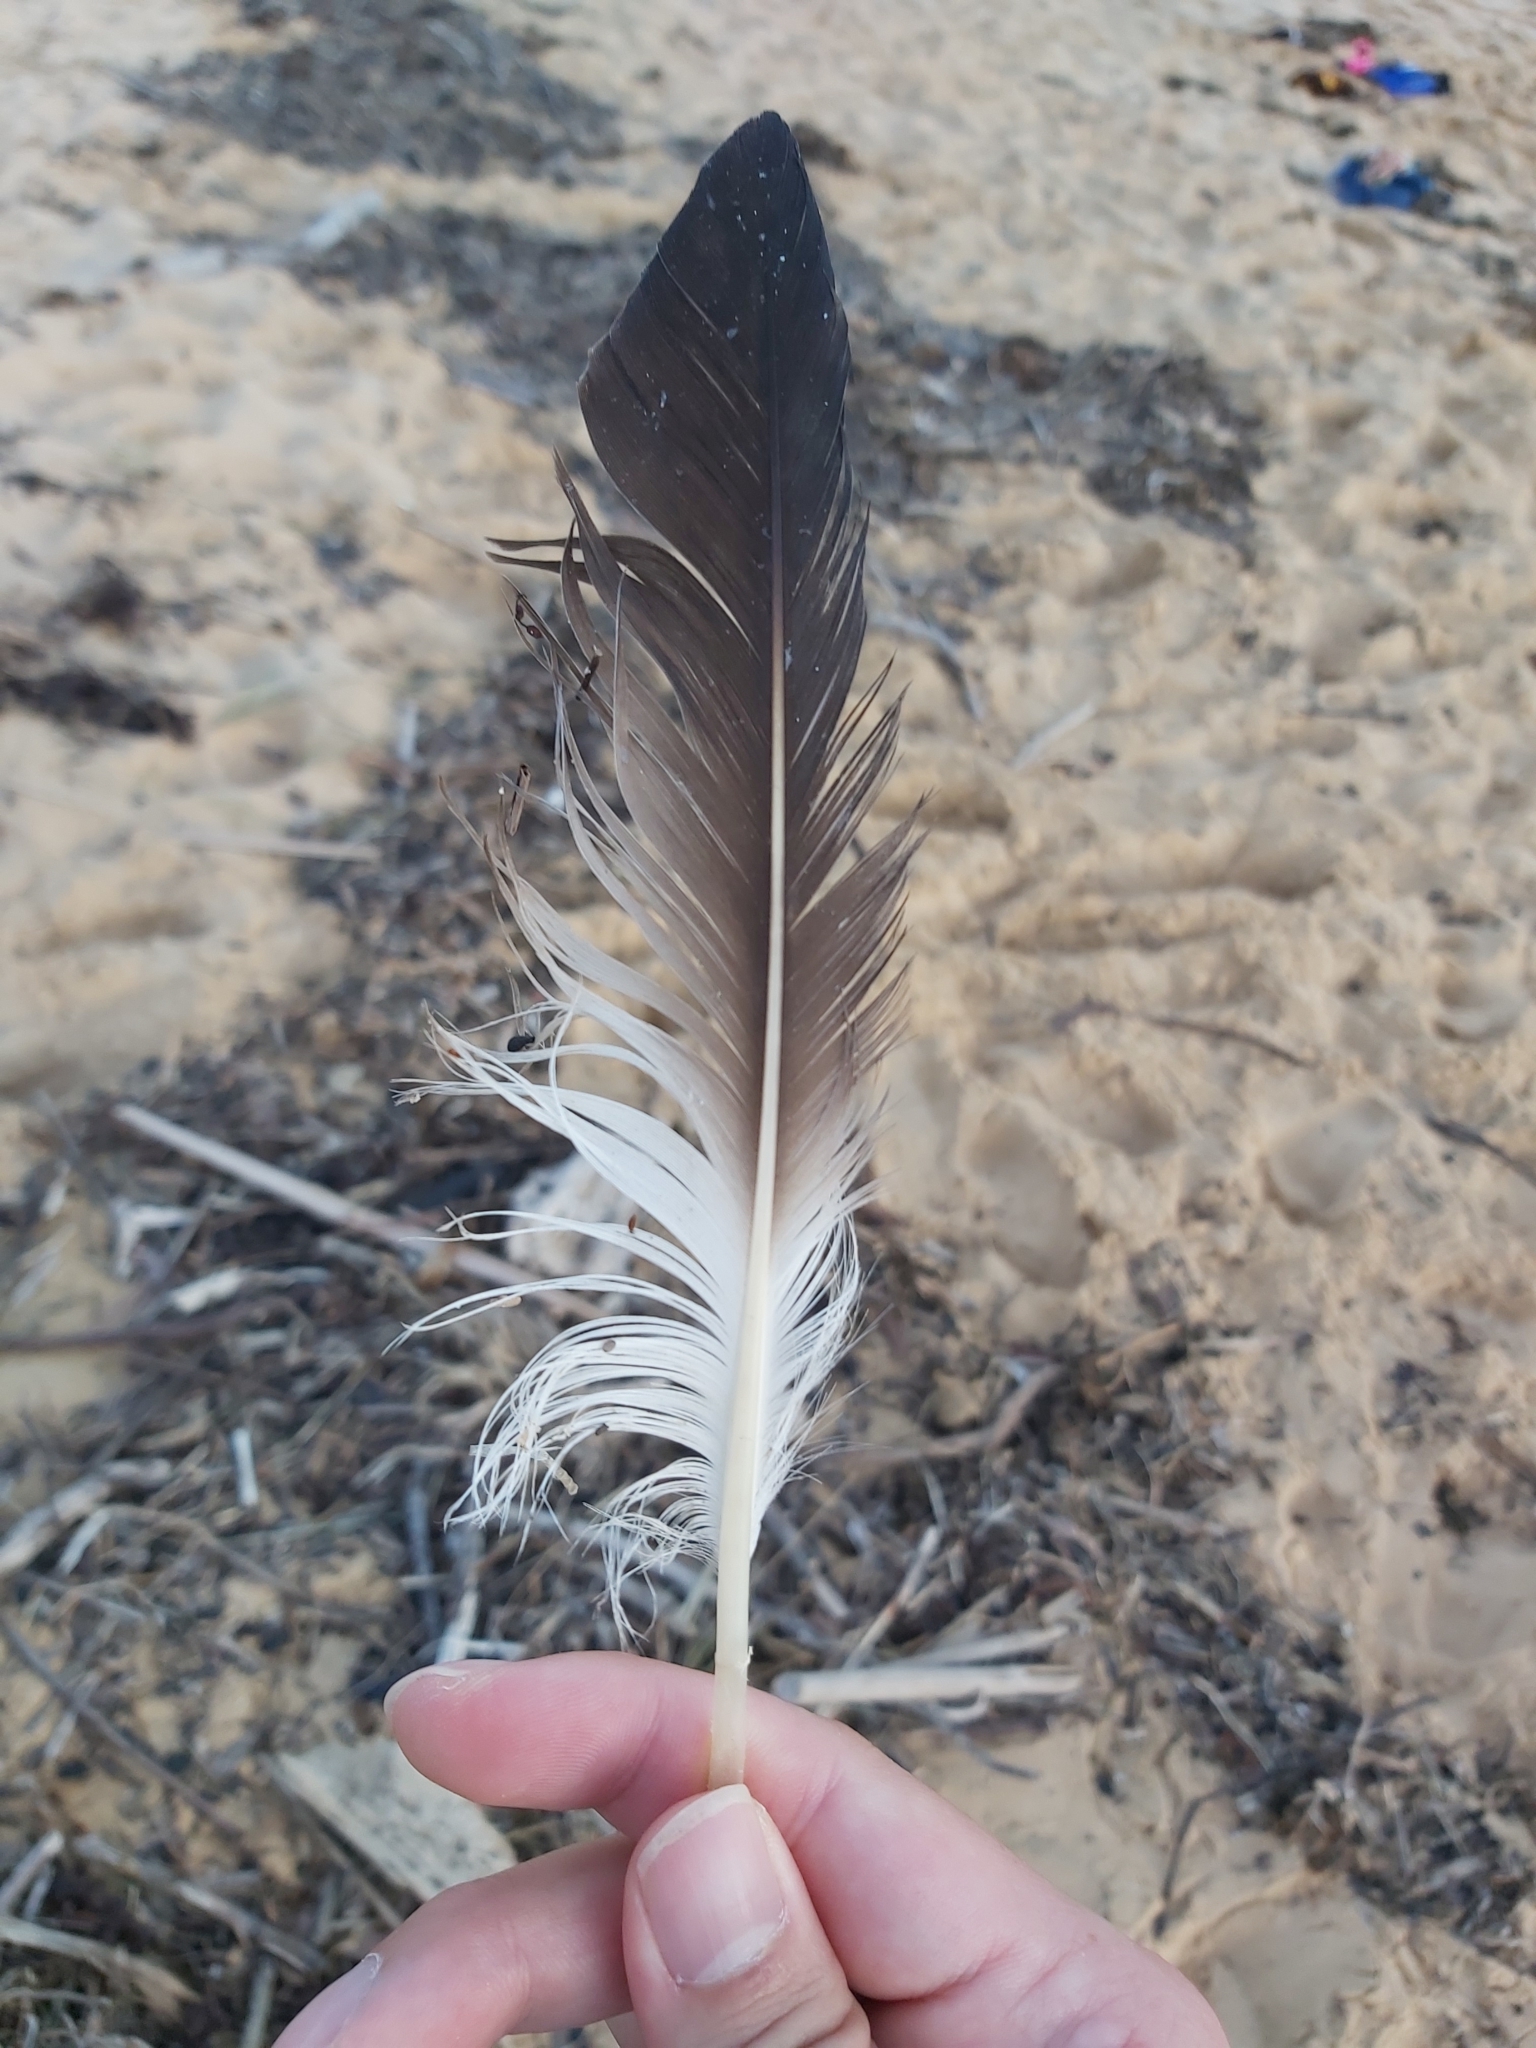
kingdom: Animalia
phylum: Chordata
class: Aves
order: Suliformes
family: Sulidae
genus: Morus
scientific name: Morus serrator
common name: Australasian gannet
